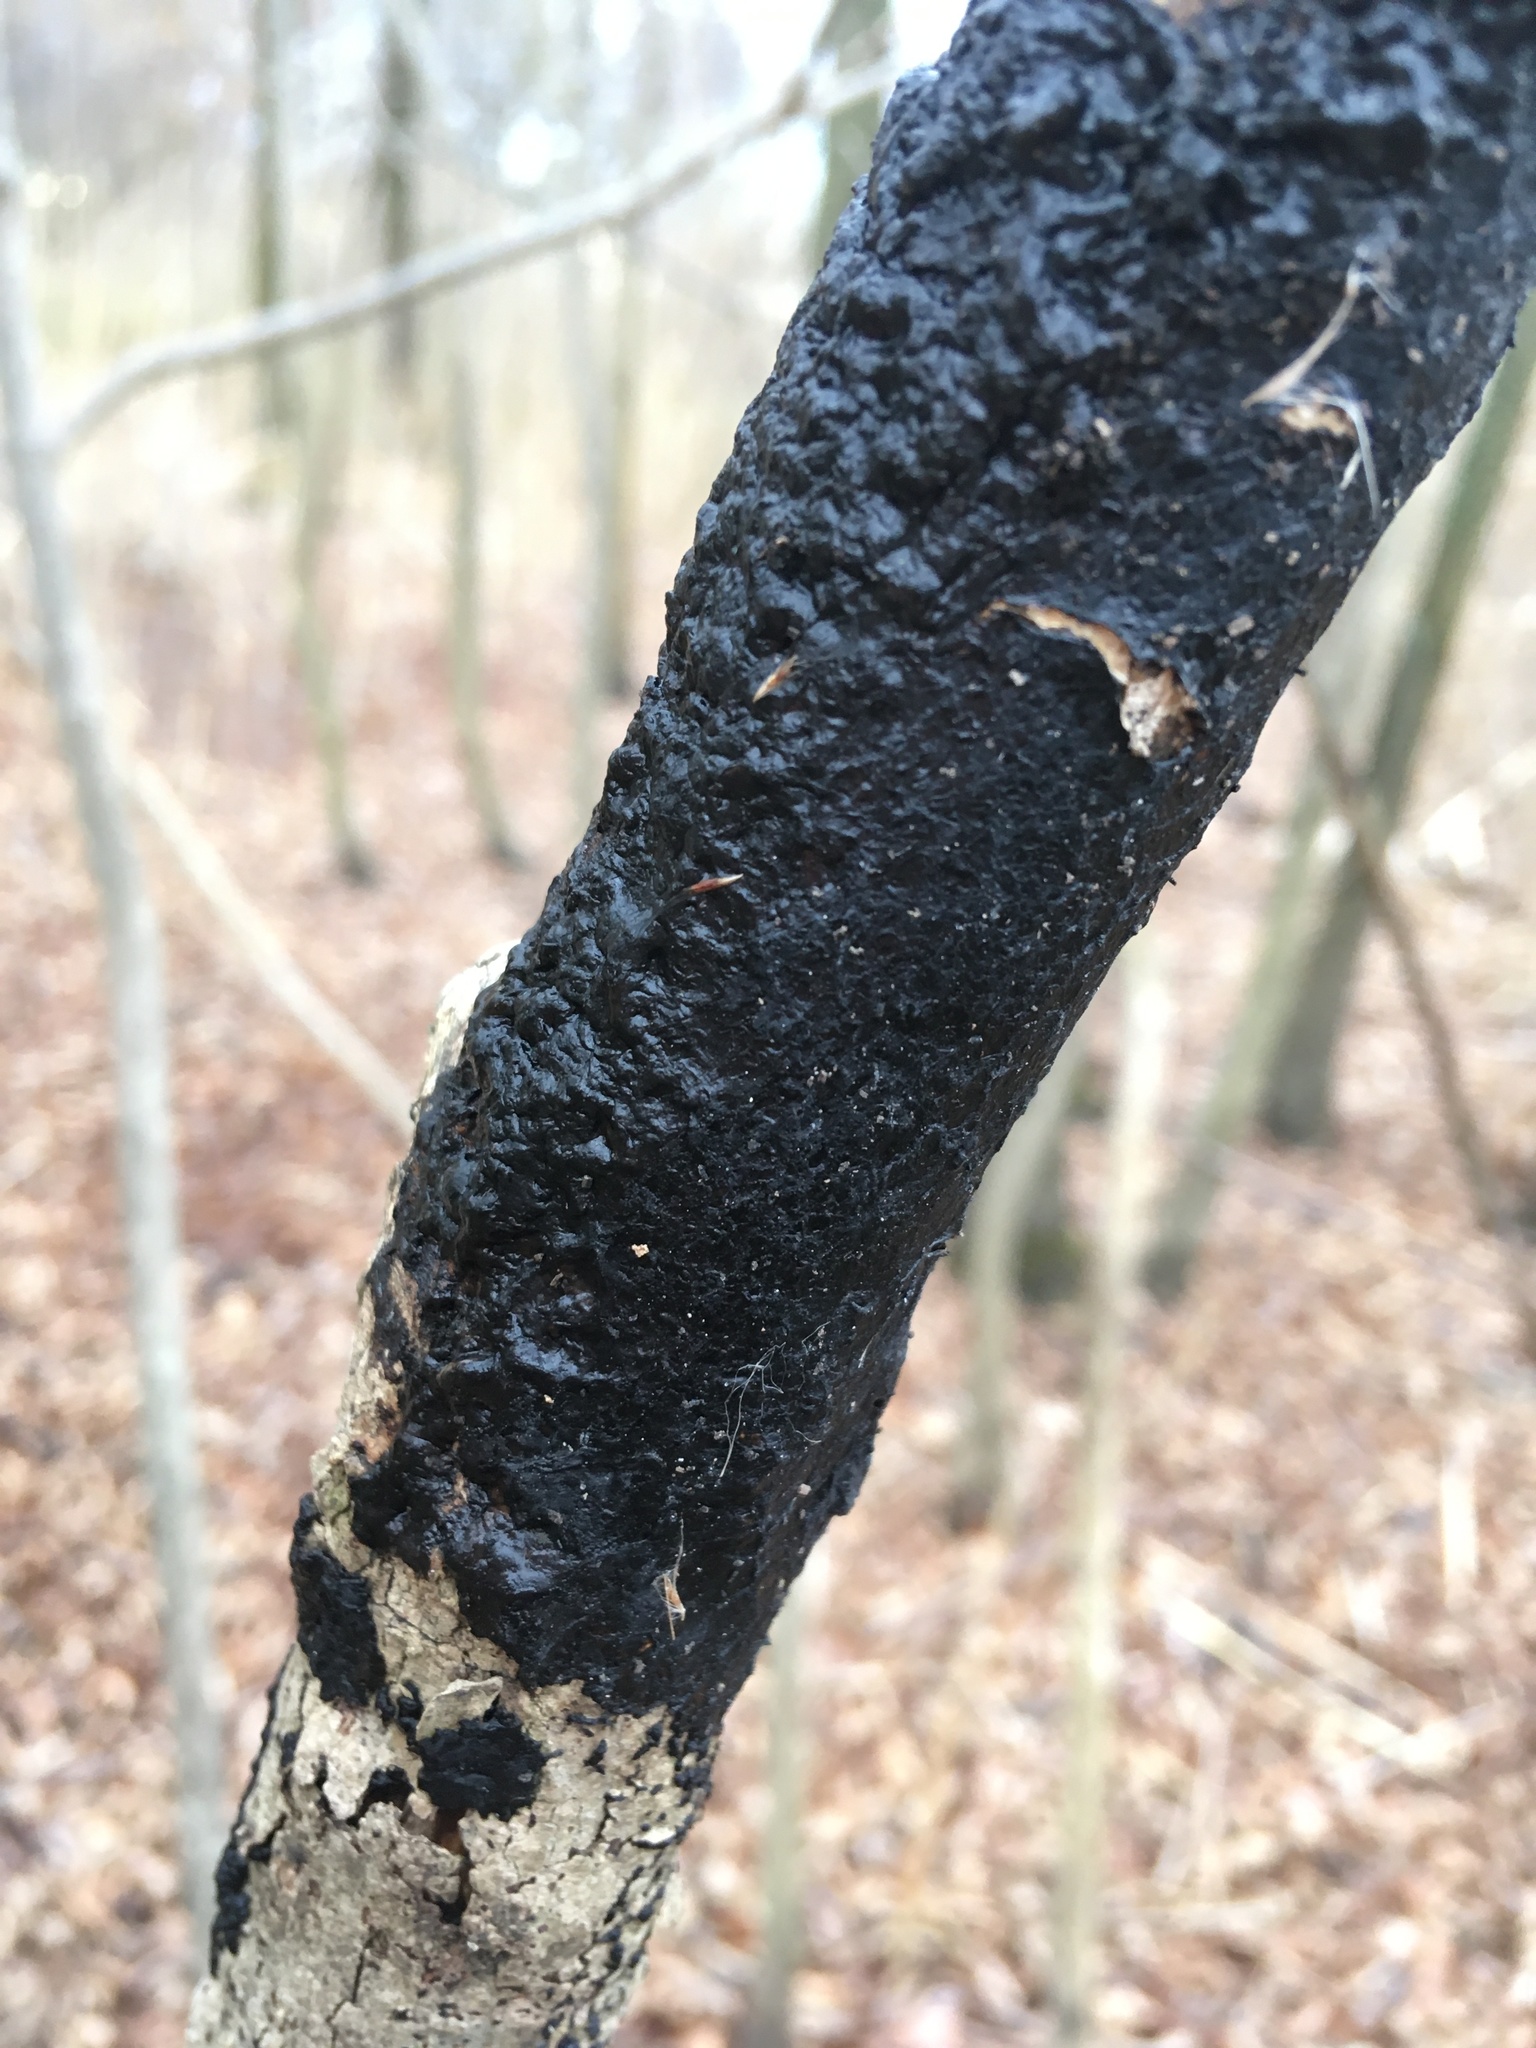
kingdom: Fungi
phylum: Basidiomycota
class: Agaricomycetes
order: Auriculariales
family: Auriculariaceae
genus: Exidia
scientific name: Exidia nigricans
